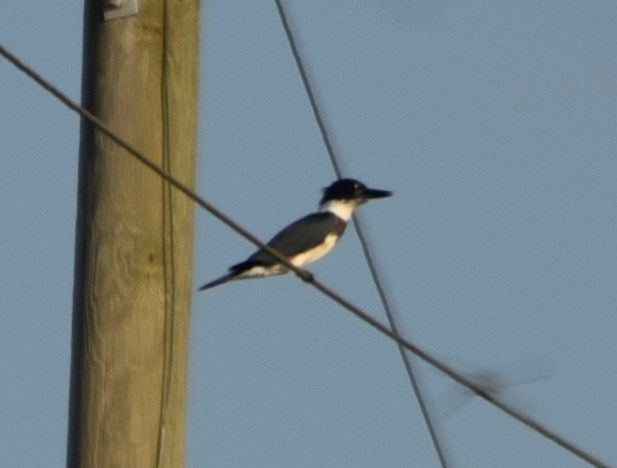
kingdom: Animalia
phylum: Chordata
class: Aves
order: Coraciiformes
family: Alcedinidae
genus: Megaceryle
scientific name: Megaceryle alcyon
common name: Belted kingfisher
